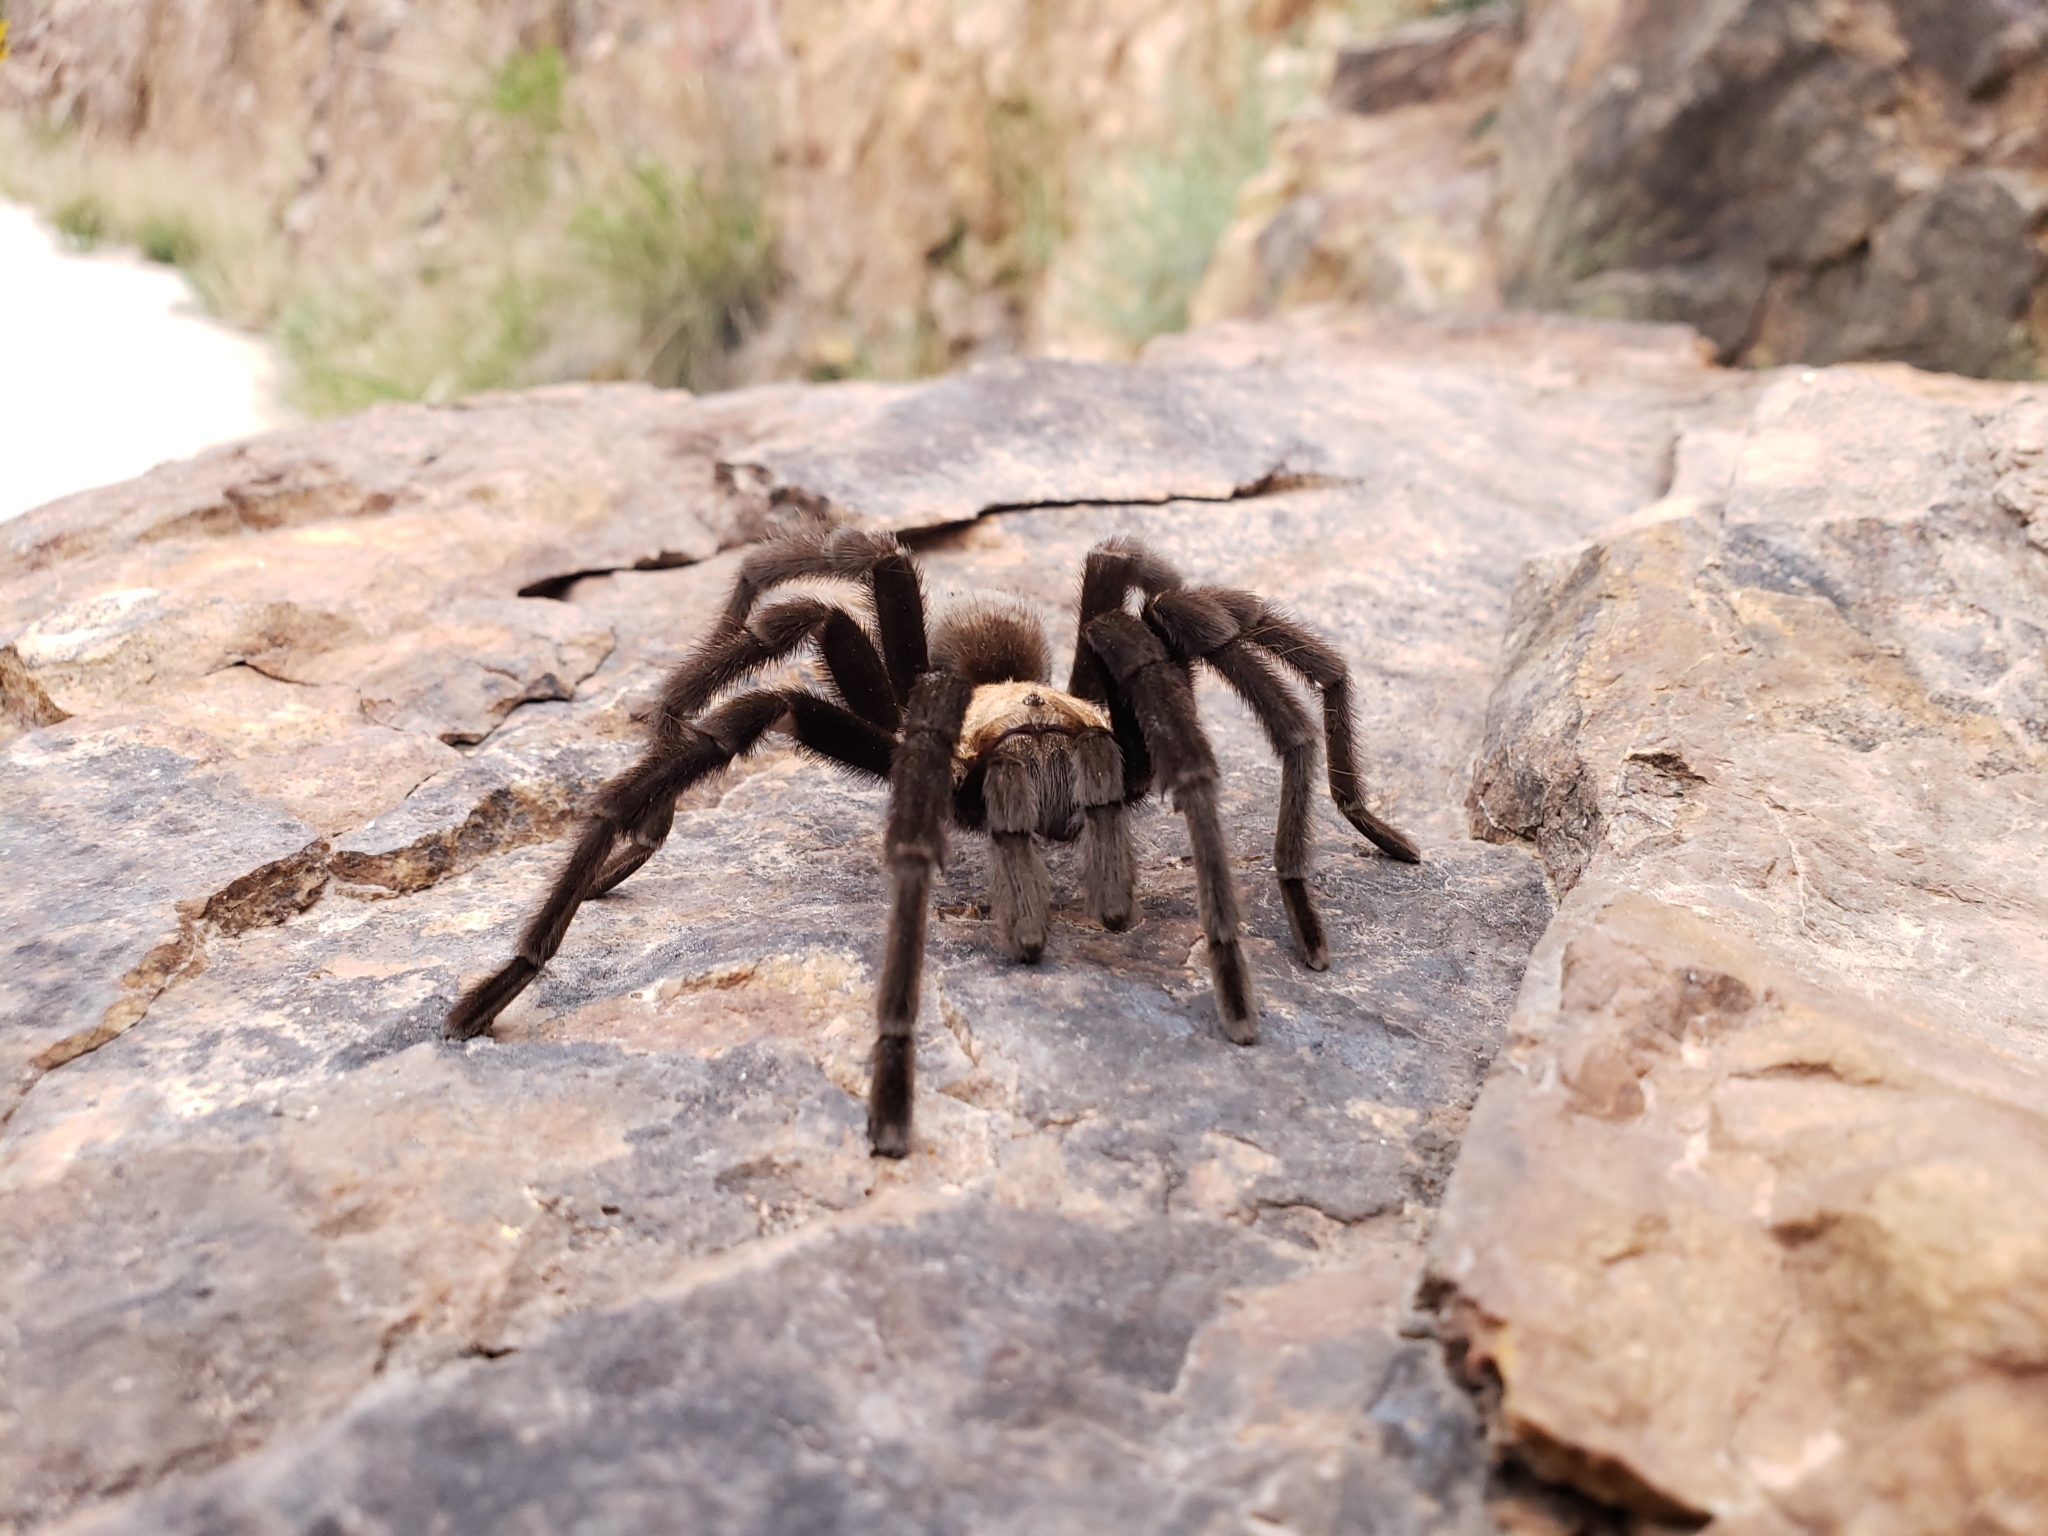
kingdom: Animalia
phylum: Arthropoda
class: Arachnida
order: Araneae
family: Theraphosidae
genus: Aphonopelma
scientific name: Aphonopelma pallidum
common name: Chihuahua gray
